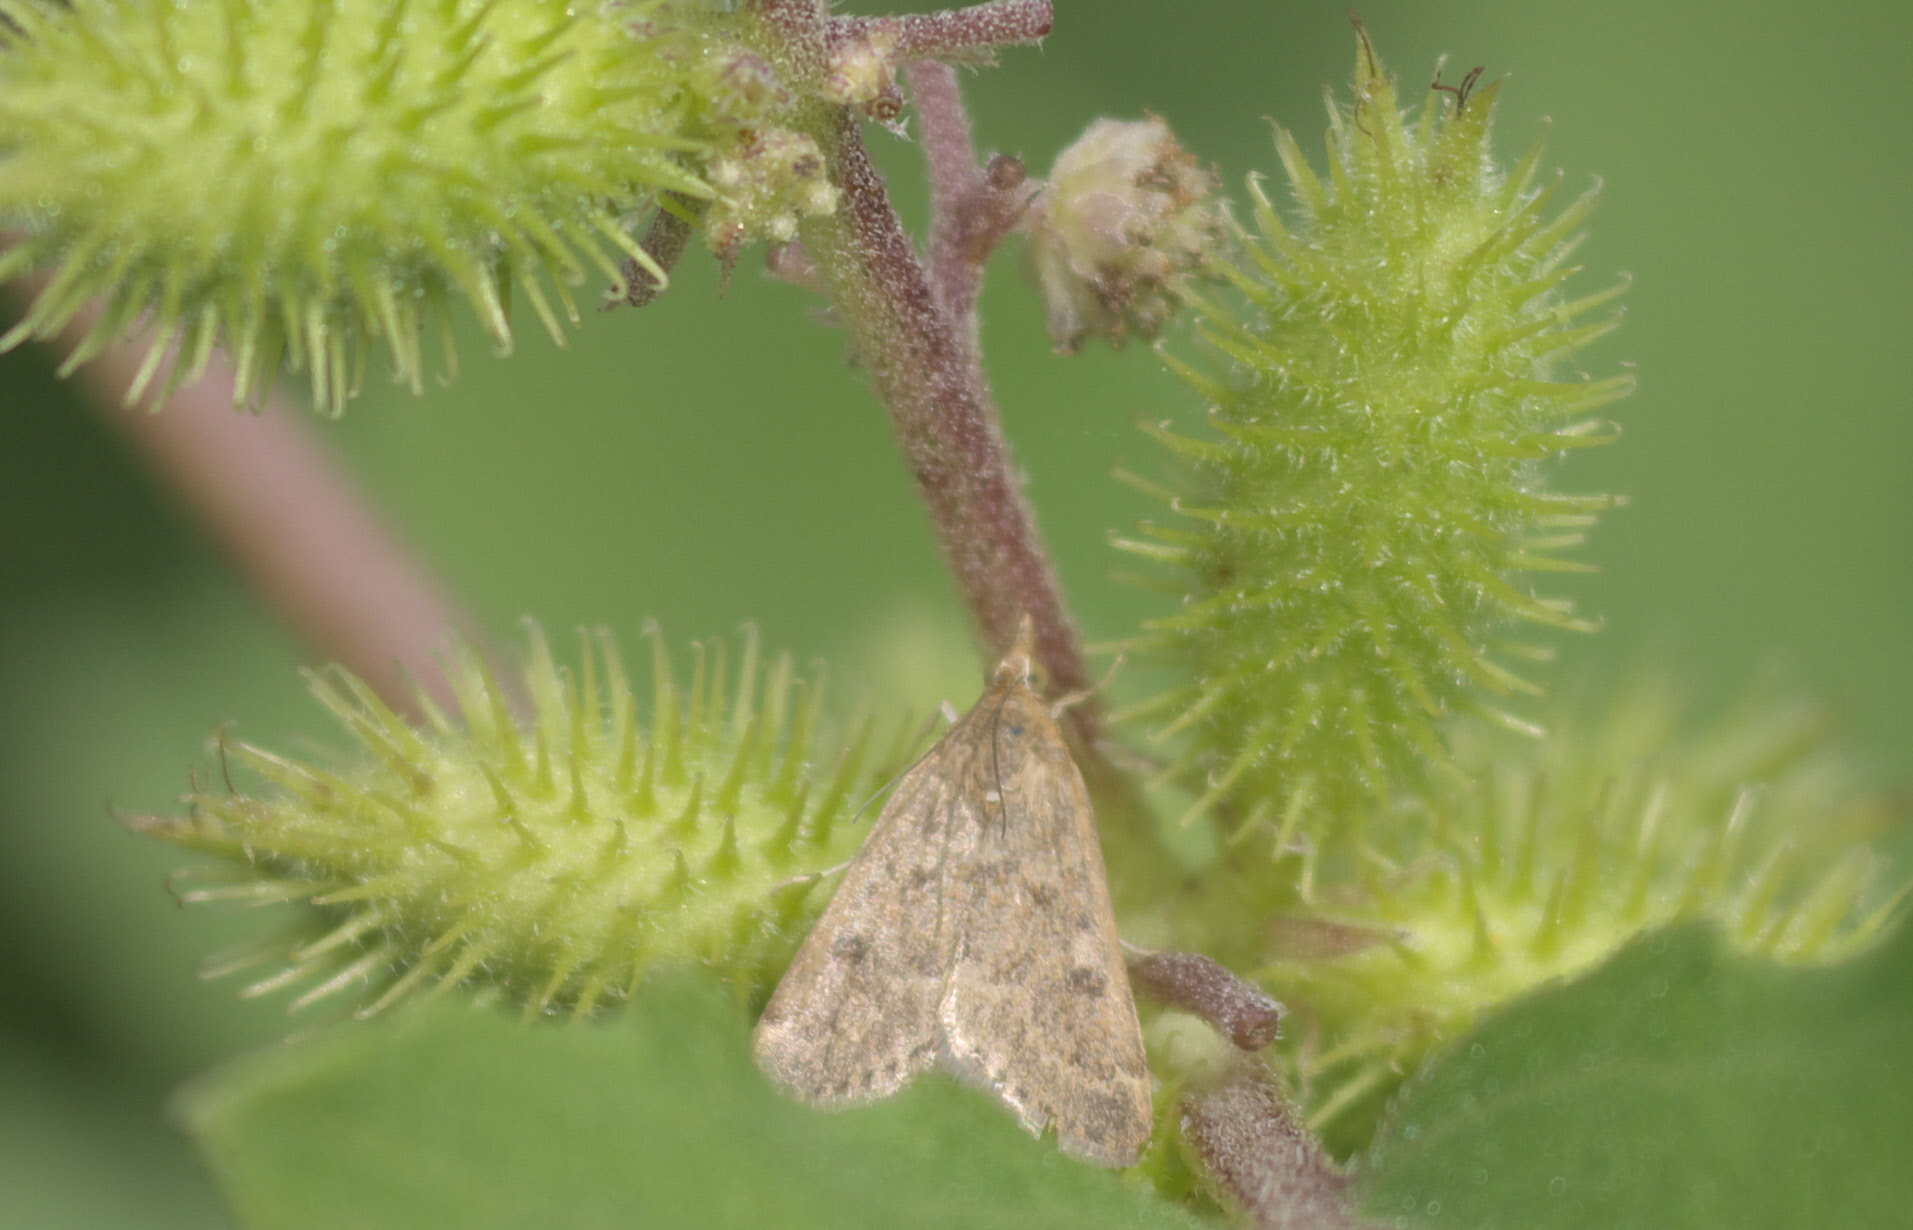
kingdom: Animalia
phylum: Arthropoda
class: Insecta
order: Lepidoptera
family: Crambidae
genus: Achyra
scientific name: Achyra rantalis
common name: Garden webworm
